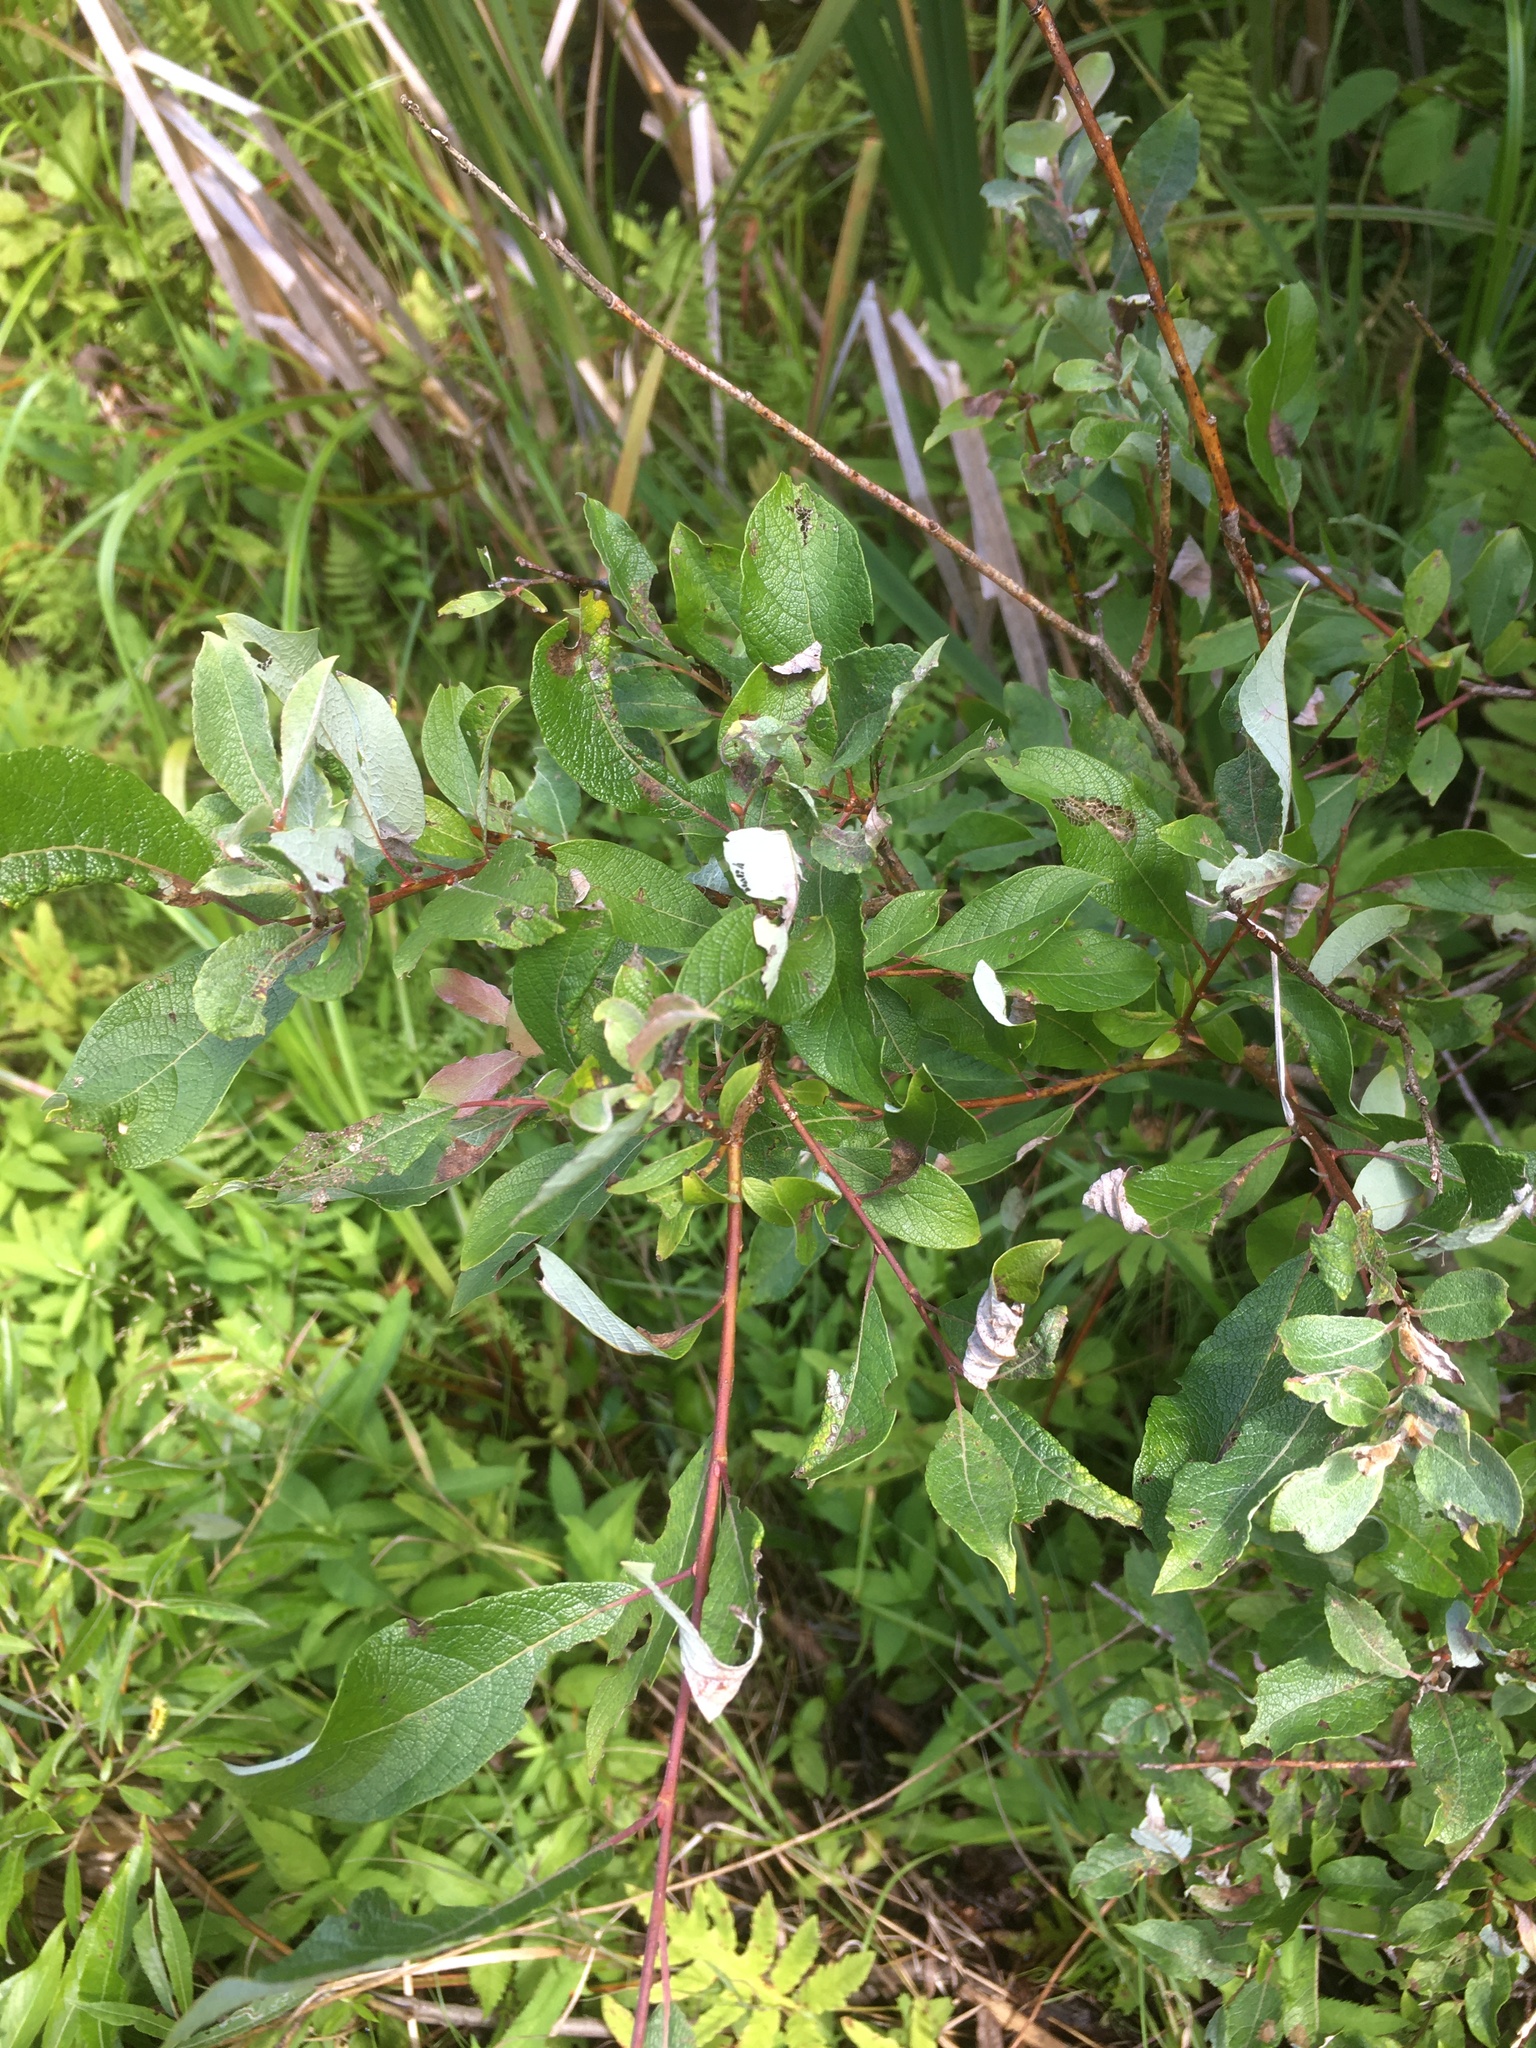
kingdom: Plantae
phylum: Tracheophyta
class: Magnoliopsida
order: Malpighiales
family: Salicaceae
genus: Salix
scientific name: Salix bebbiana
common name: Bebb's willow
